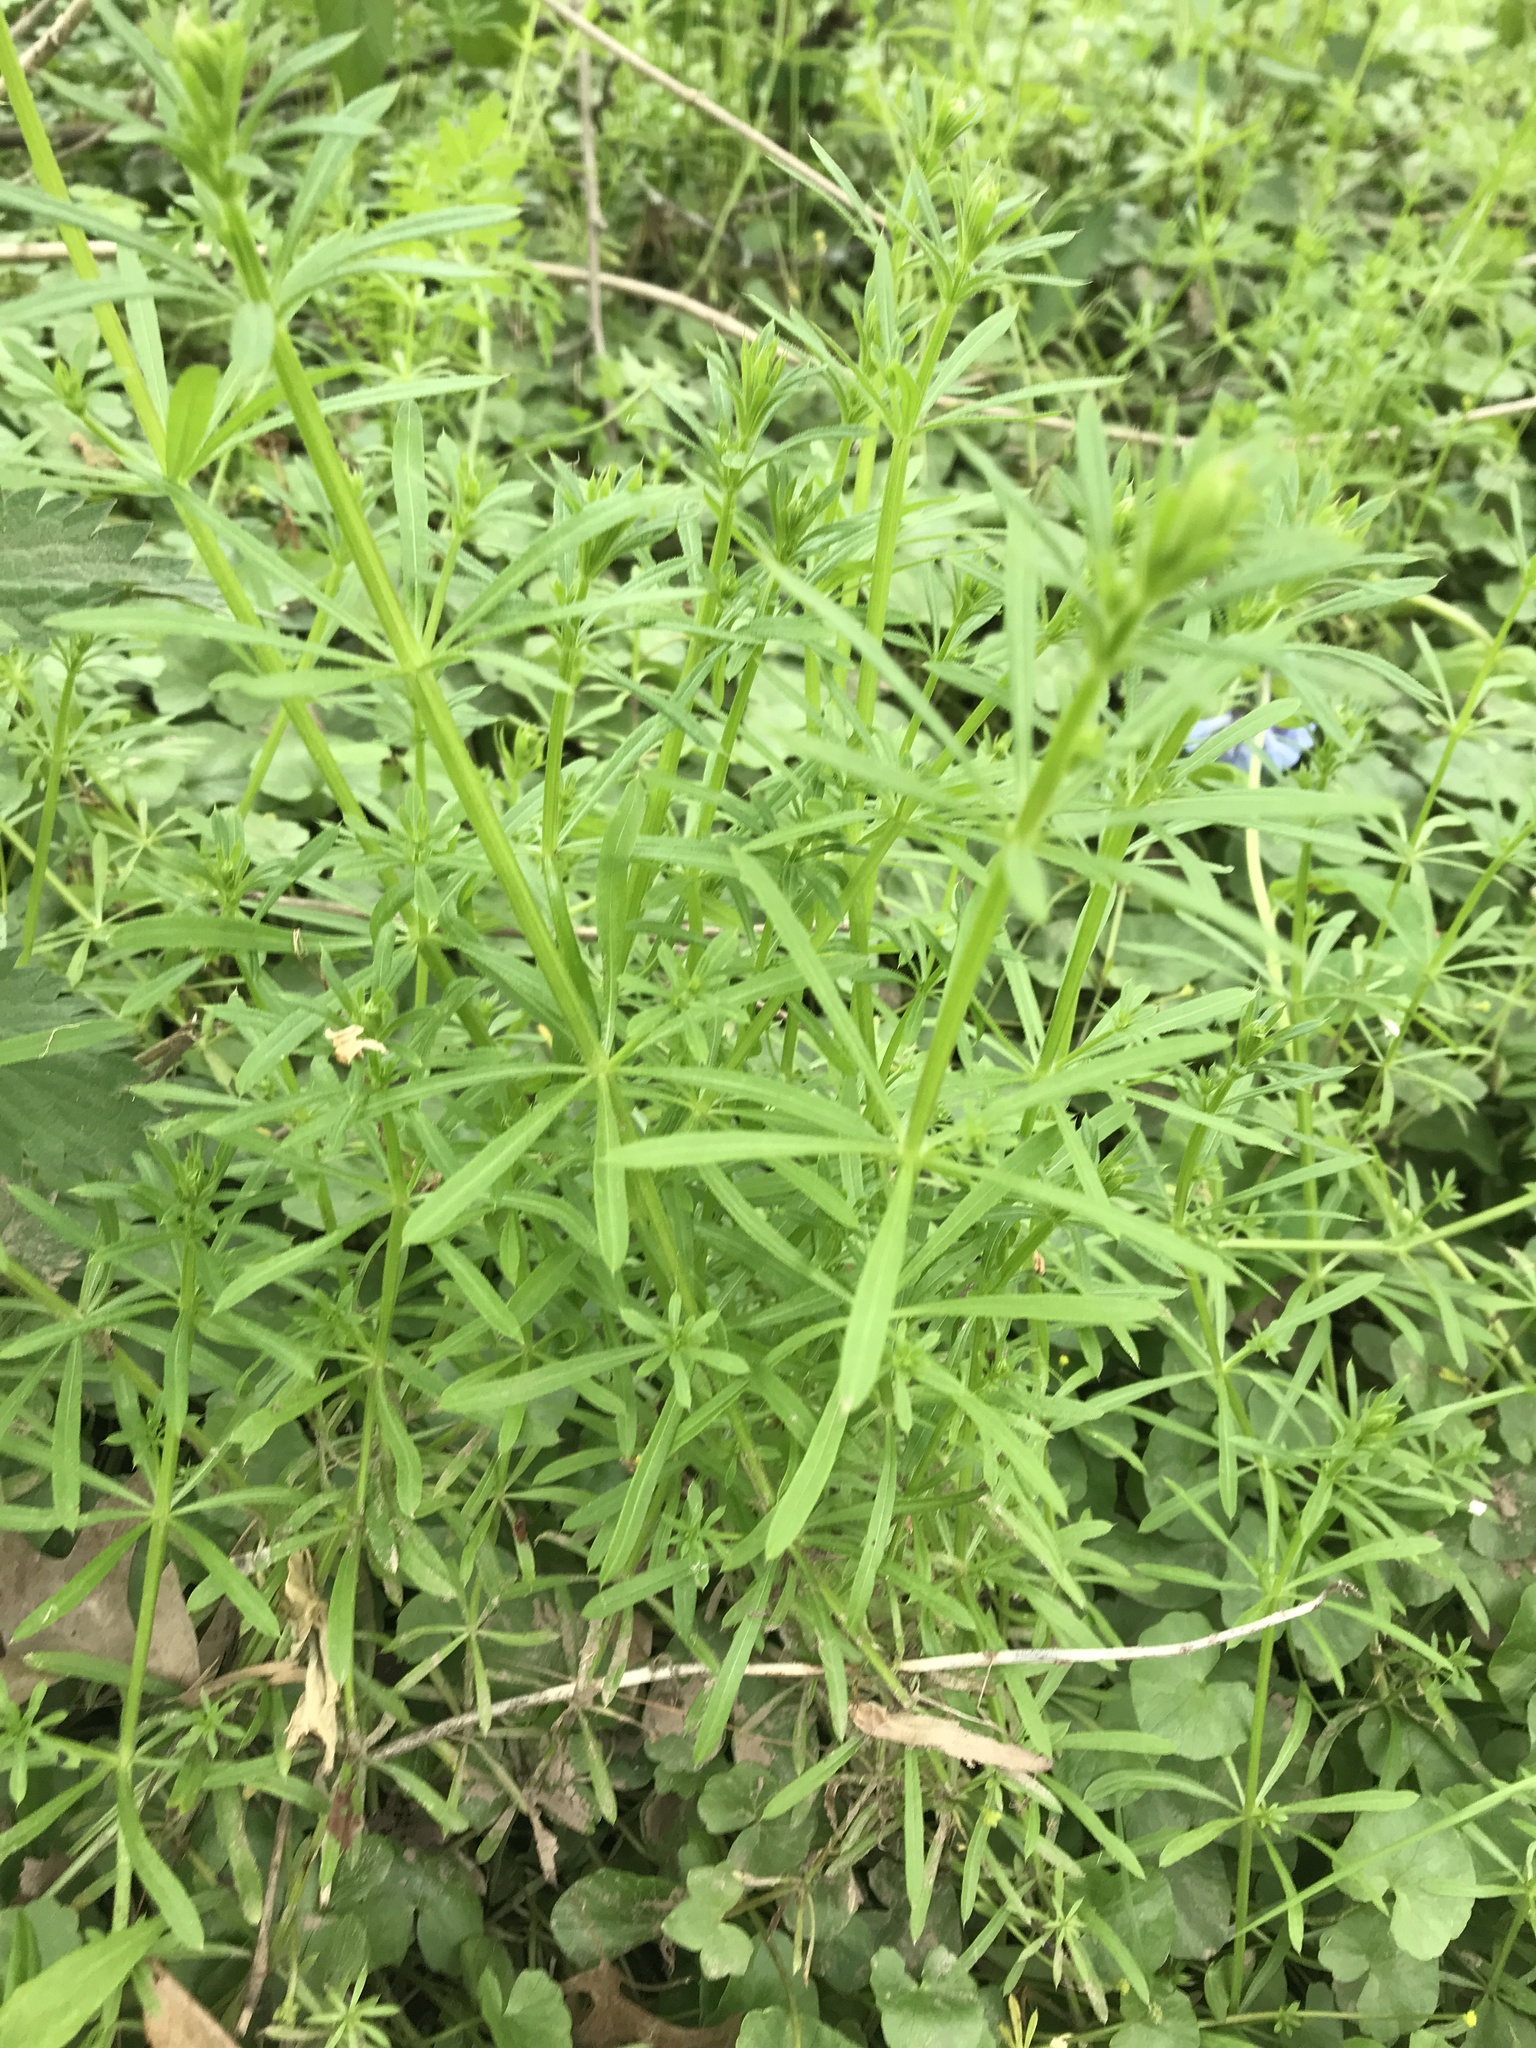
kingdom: Plantae
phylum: Tracheophyta
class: Magnoliopsida
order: Gentianales
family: Rubiaceae
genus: Galium
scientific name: Galium aparine
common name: Cleavers
